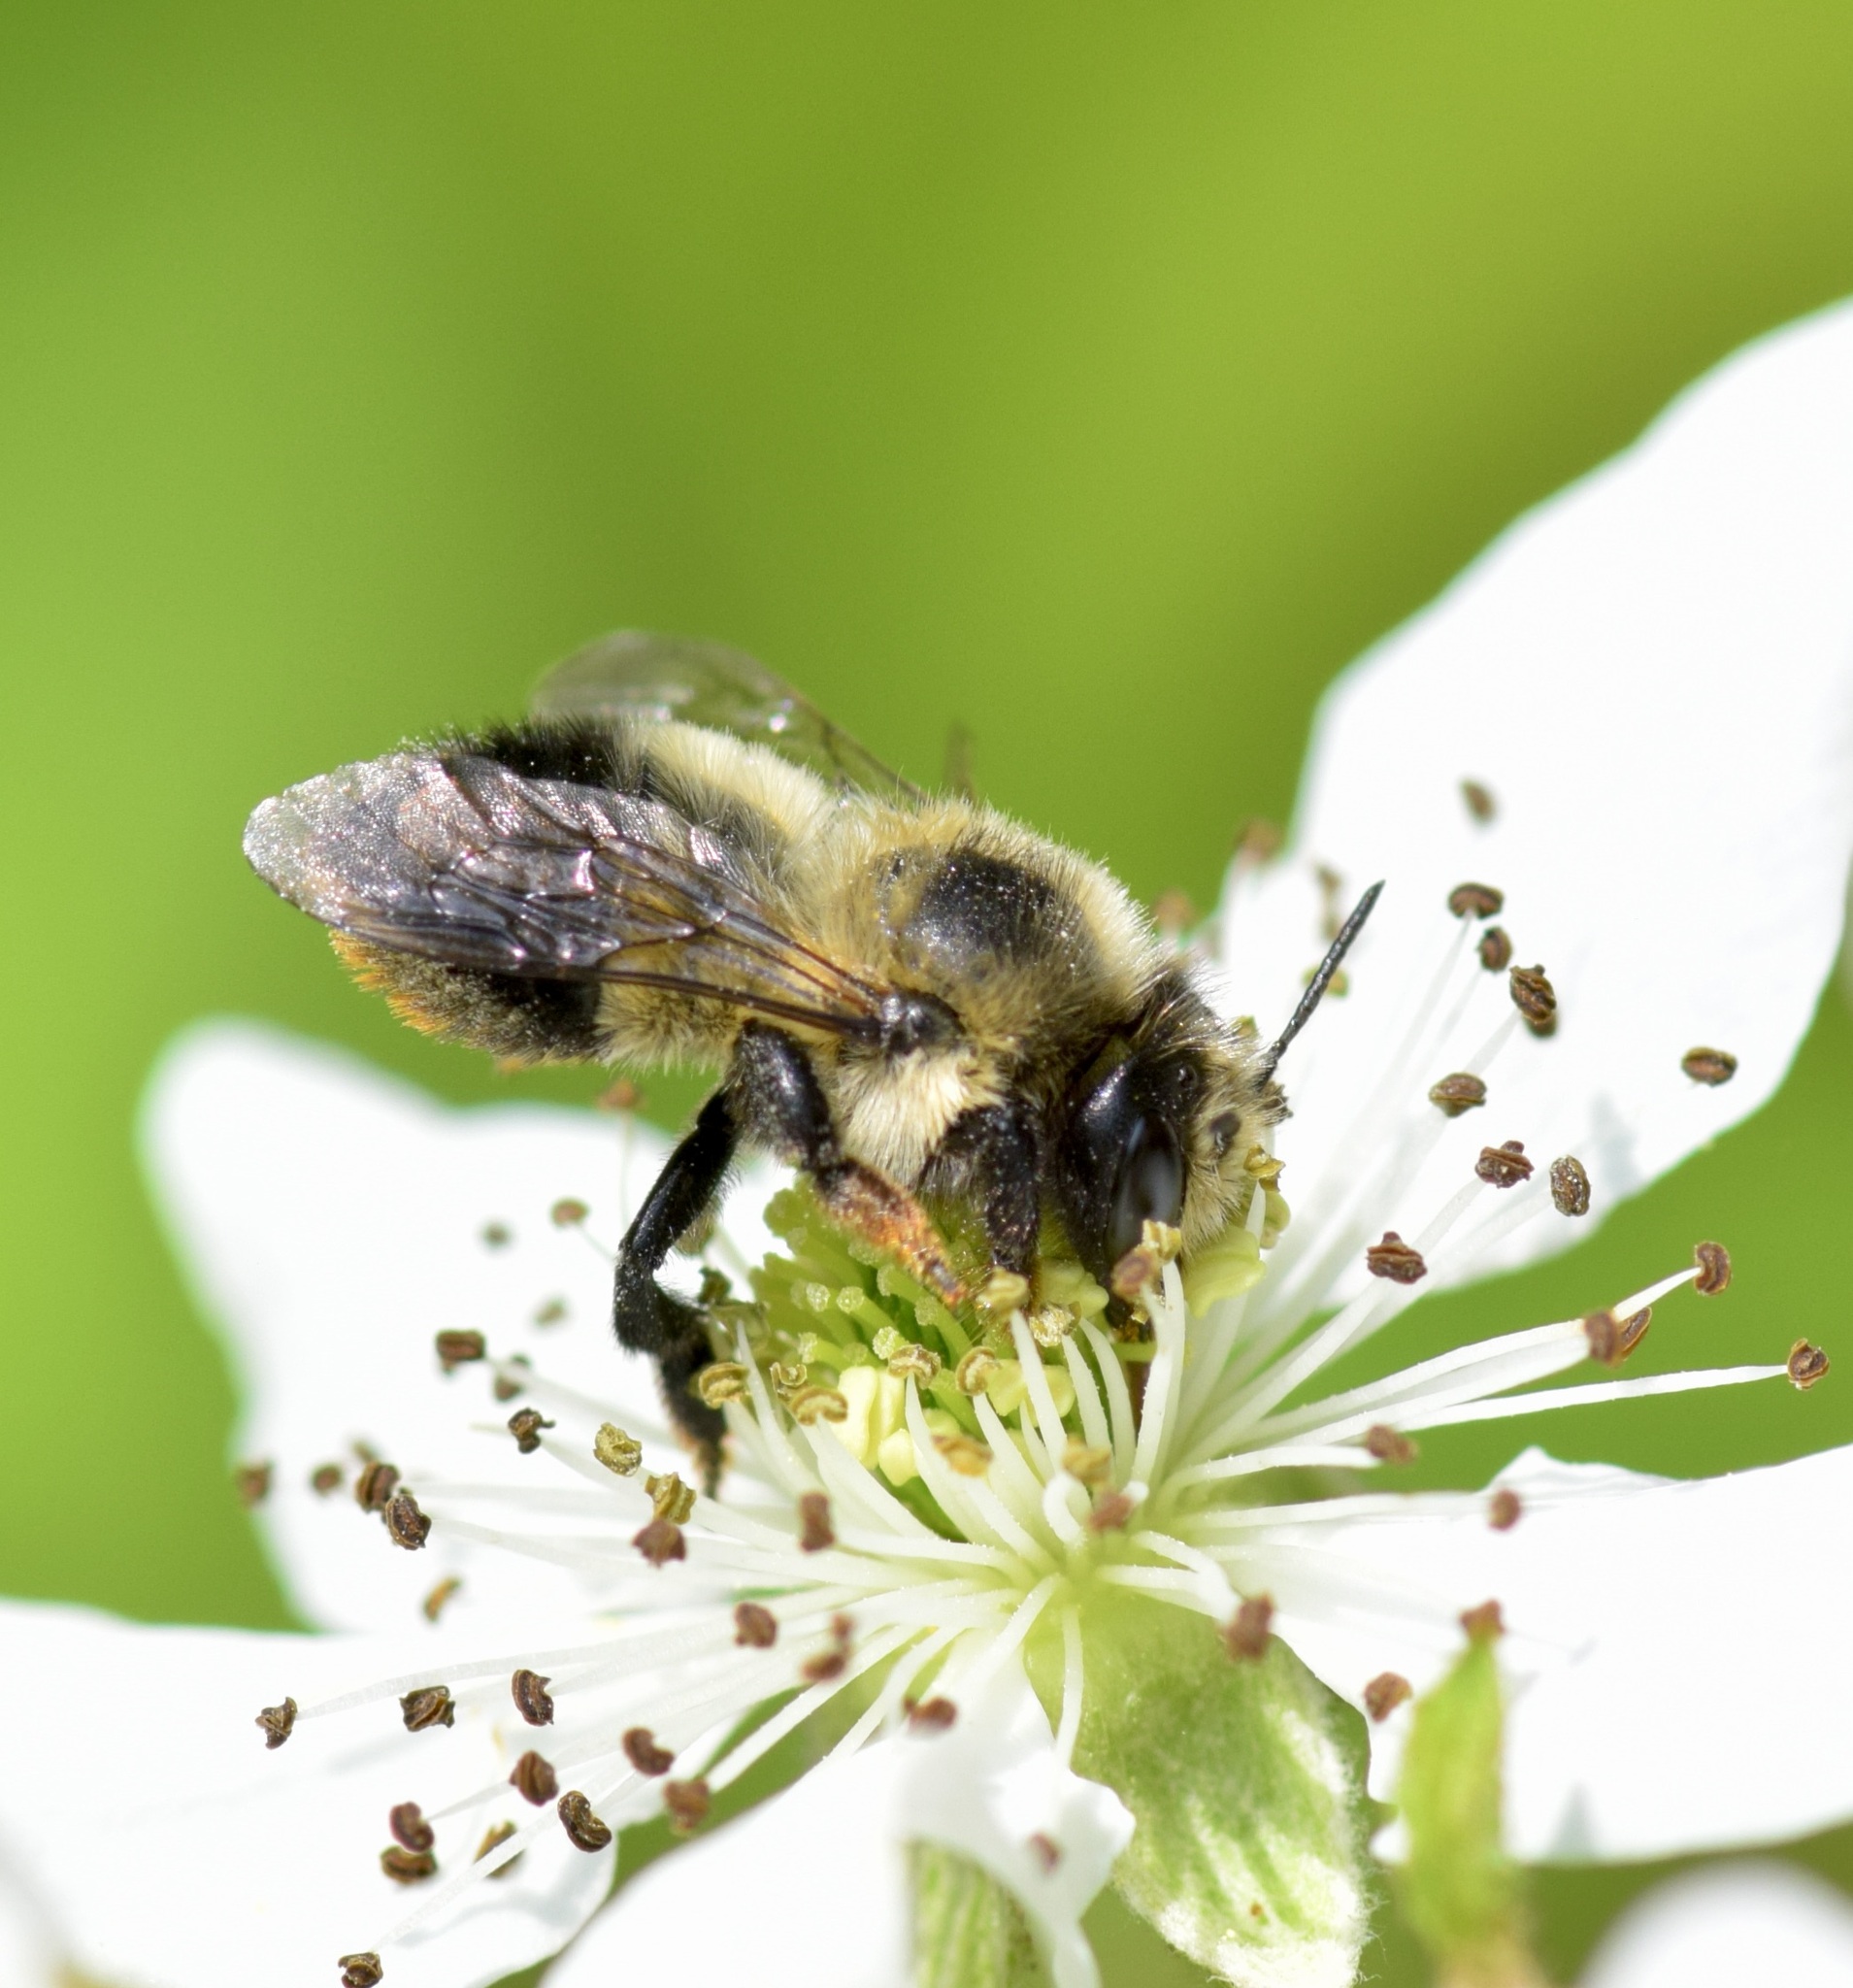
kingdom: Animalia
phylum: Arthropoda
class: Insecta
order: Hymenoptera
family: Megachilidae
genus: Megachile
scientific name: Megachile melanophaea
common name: Black-and-gray leafcutter bee
